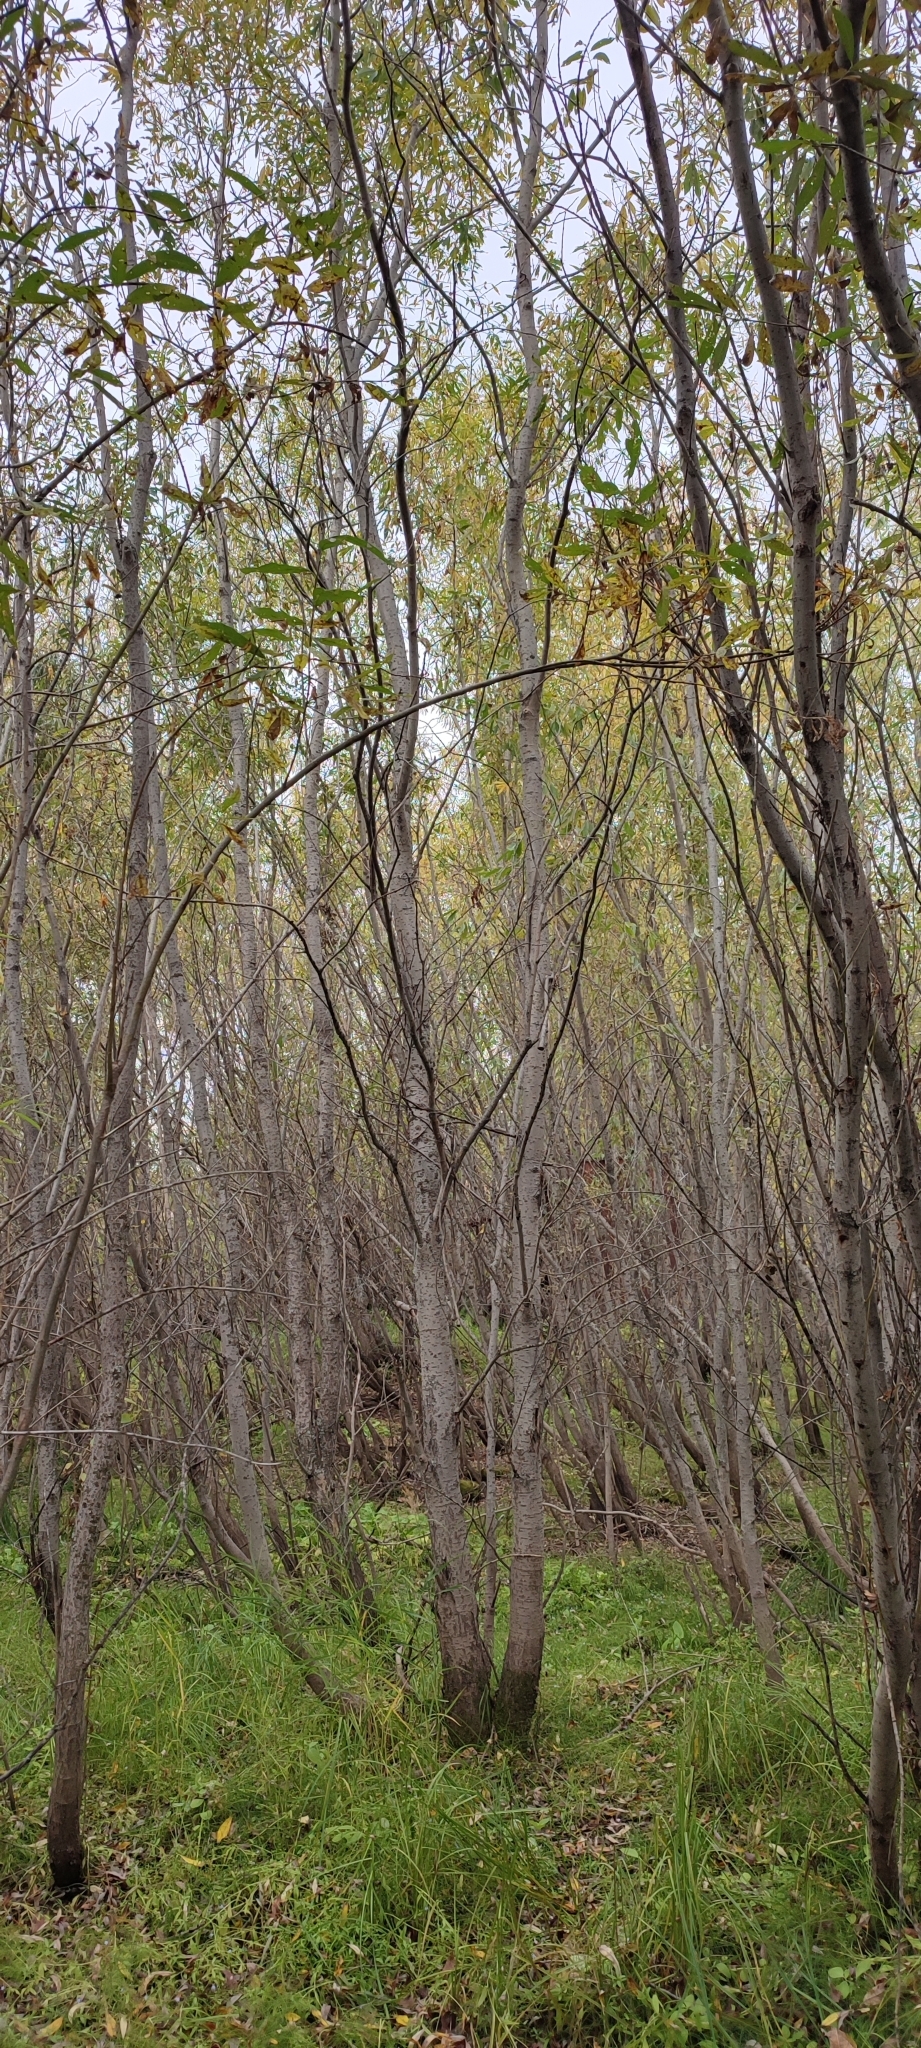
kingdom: Plantae
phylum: Tracheophyta
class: Magnoliopsida
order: Malpighiales
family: Salicaceae
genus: Salix
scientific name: Salix viminalis
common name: Osier
